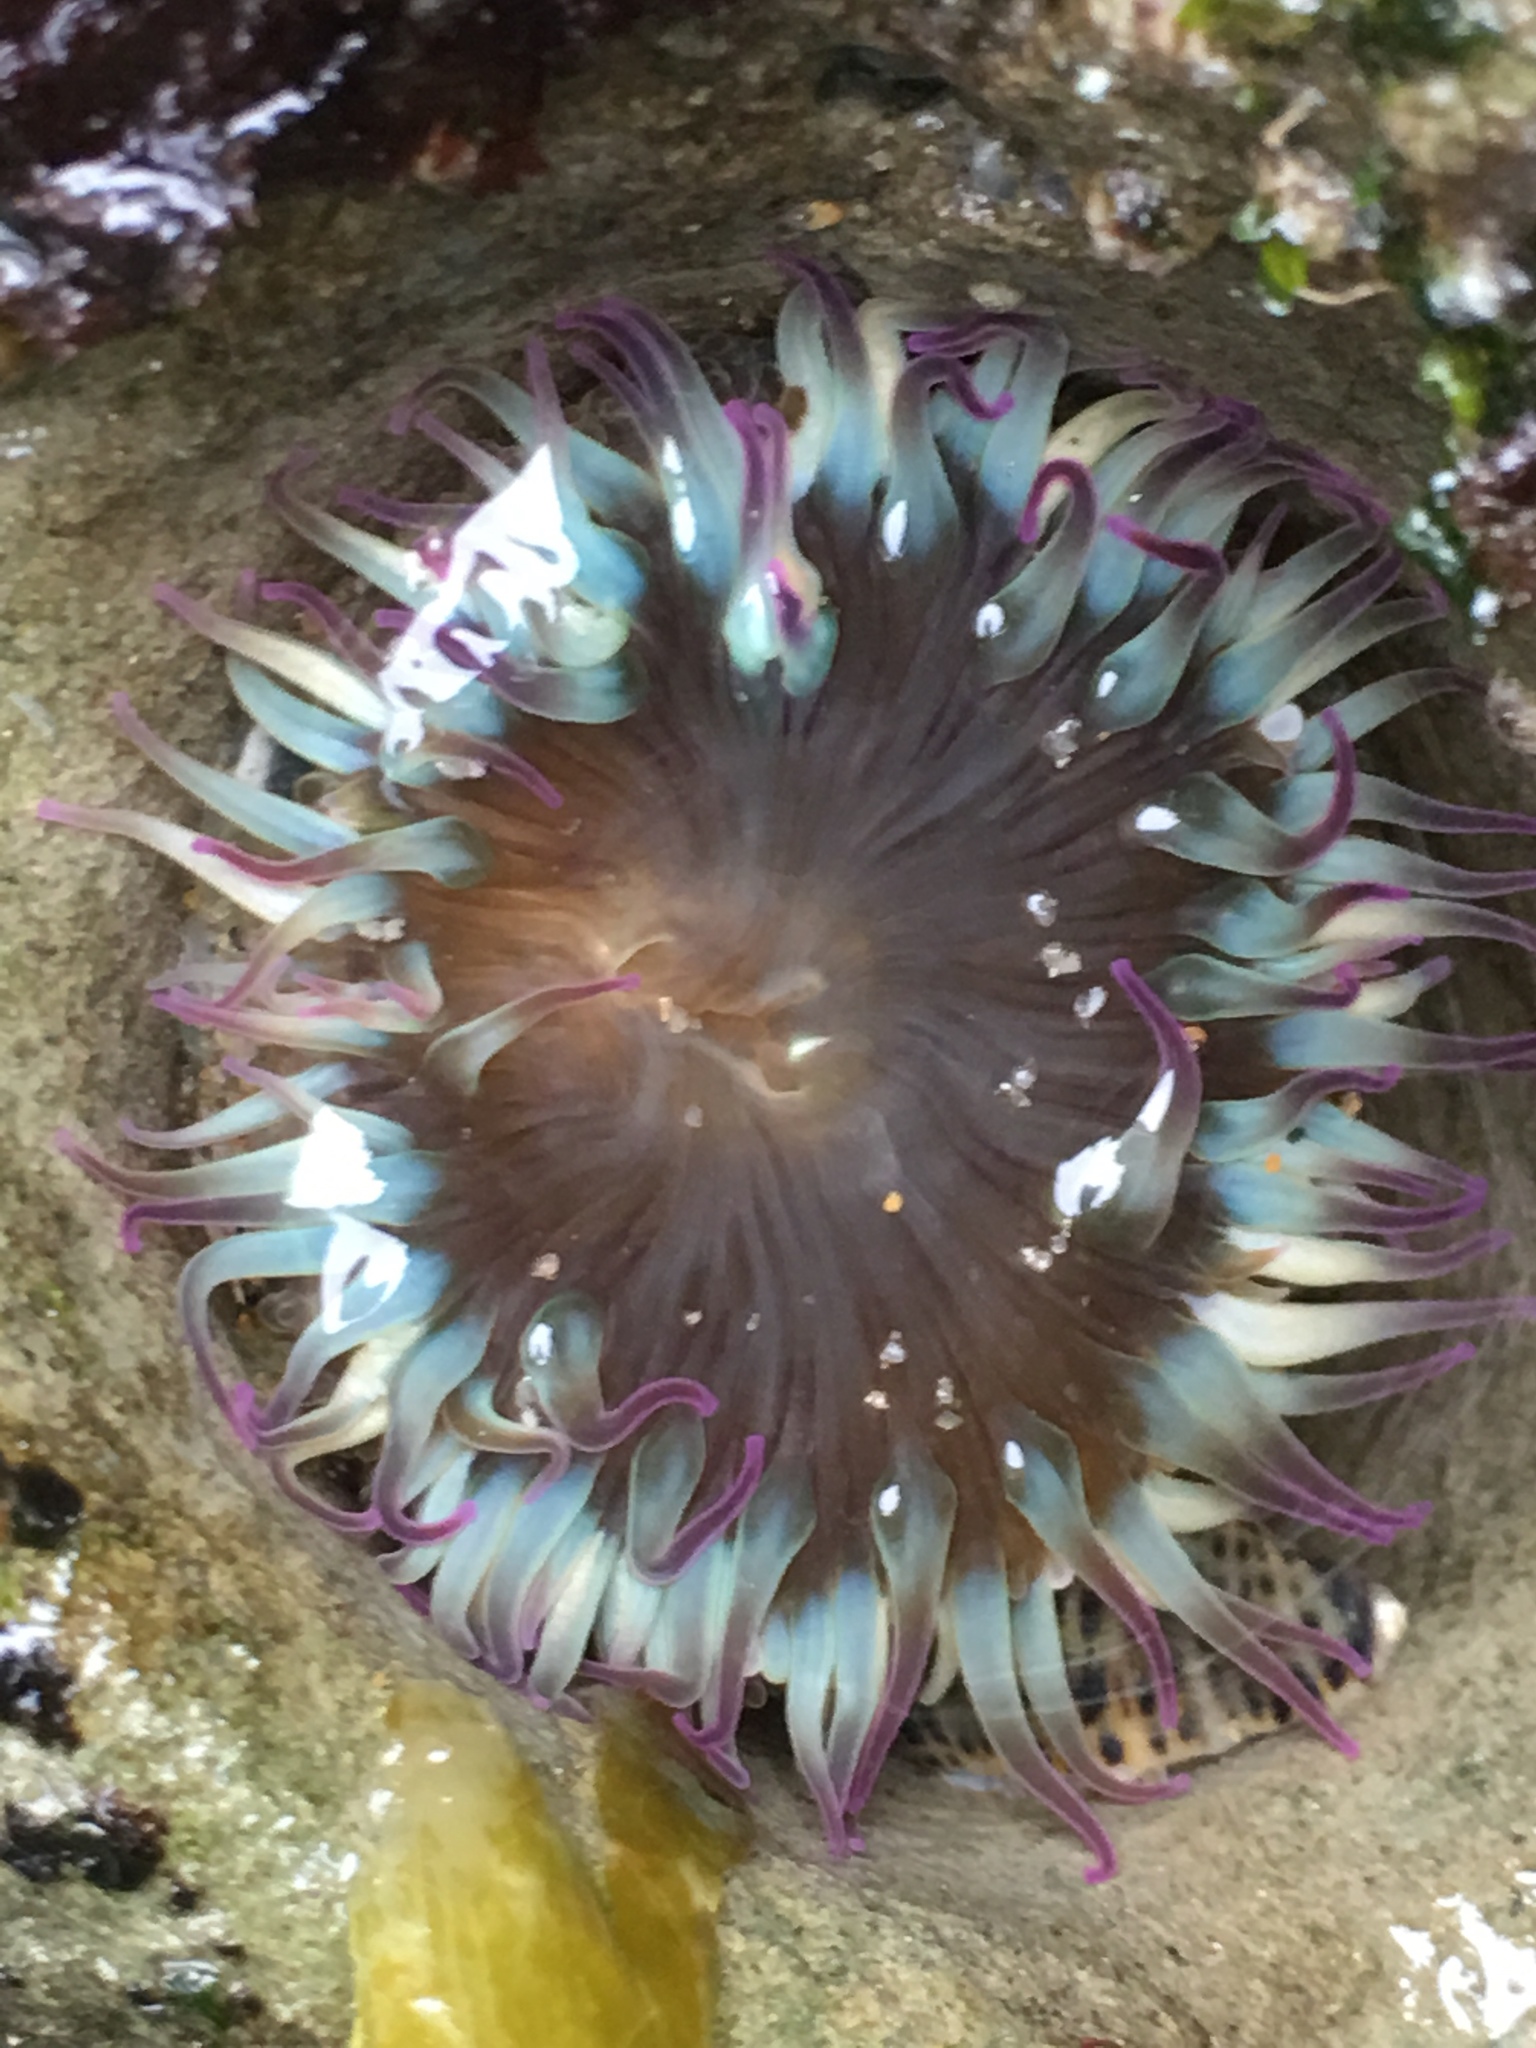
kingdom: Animalia
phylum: Cnidaria
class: Anthozoa
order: Actiniaria
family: Actiniidae
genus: Anthopleura
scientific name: Anthopleura elegantissima
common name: Clonal anemone
